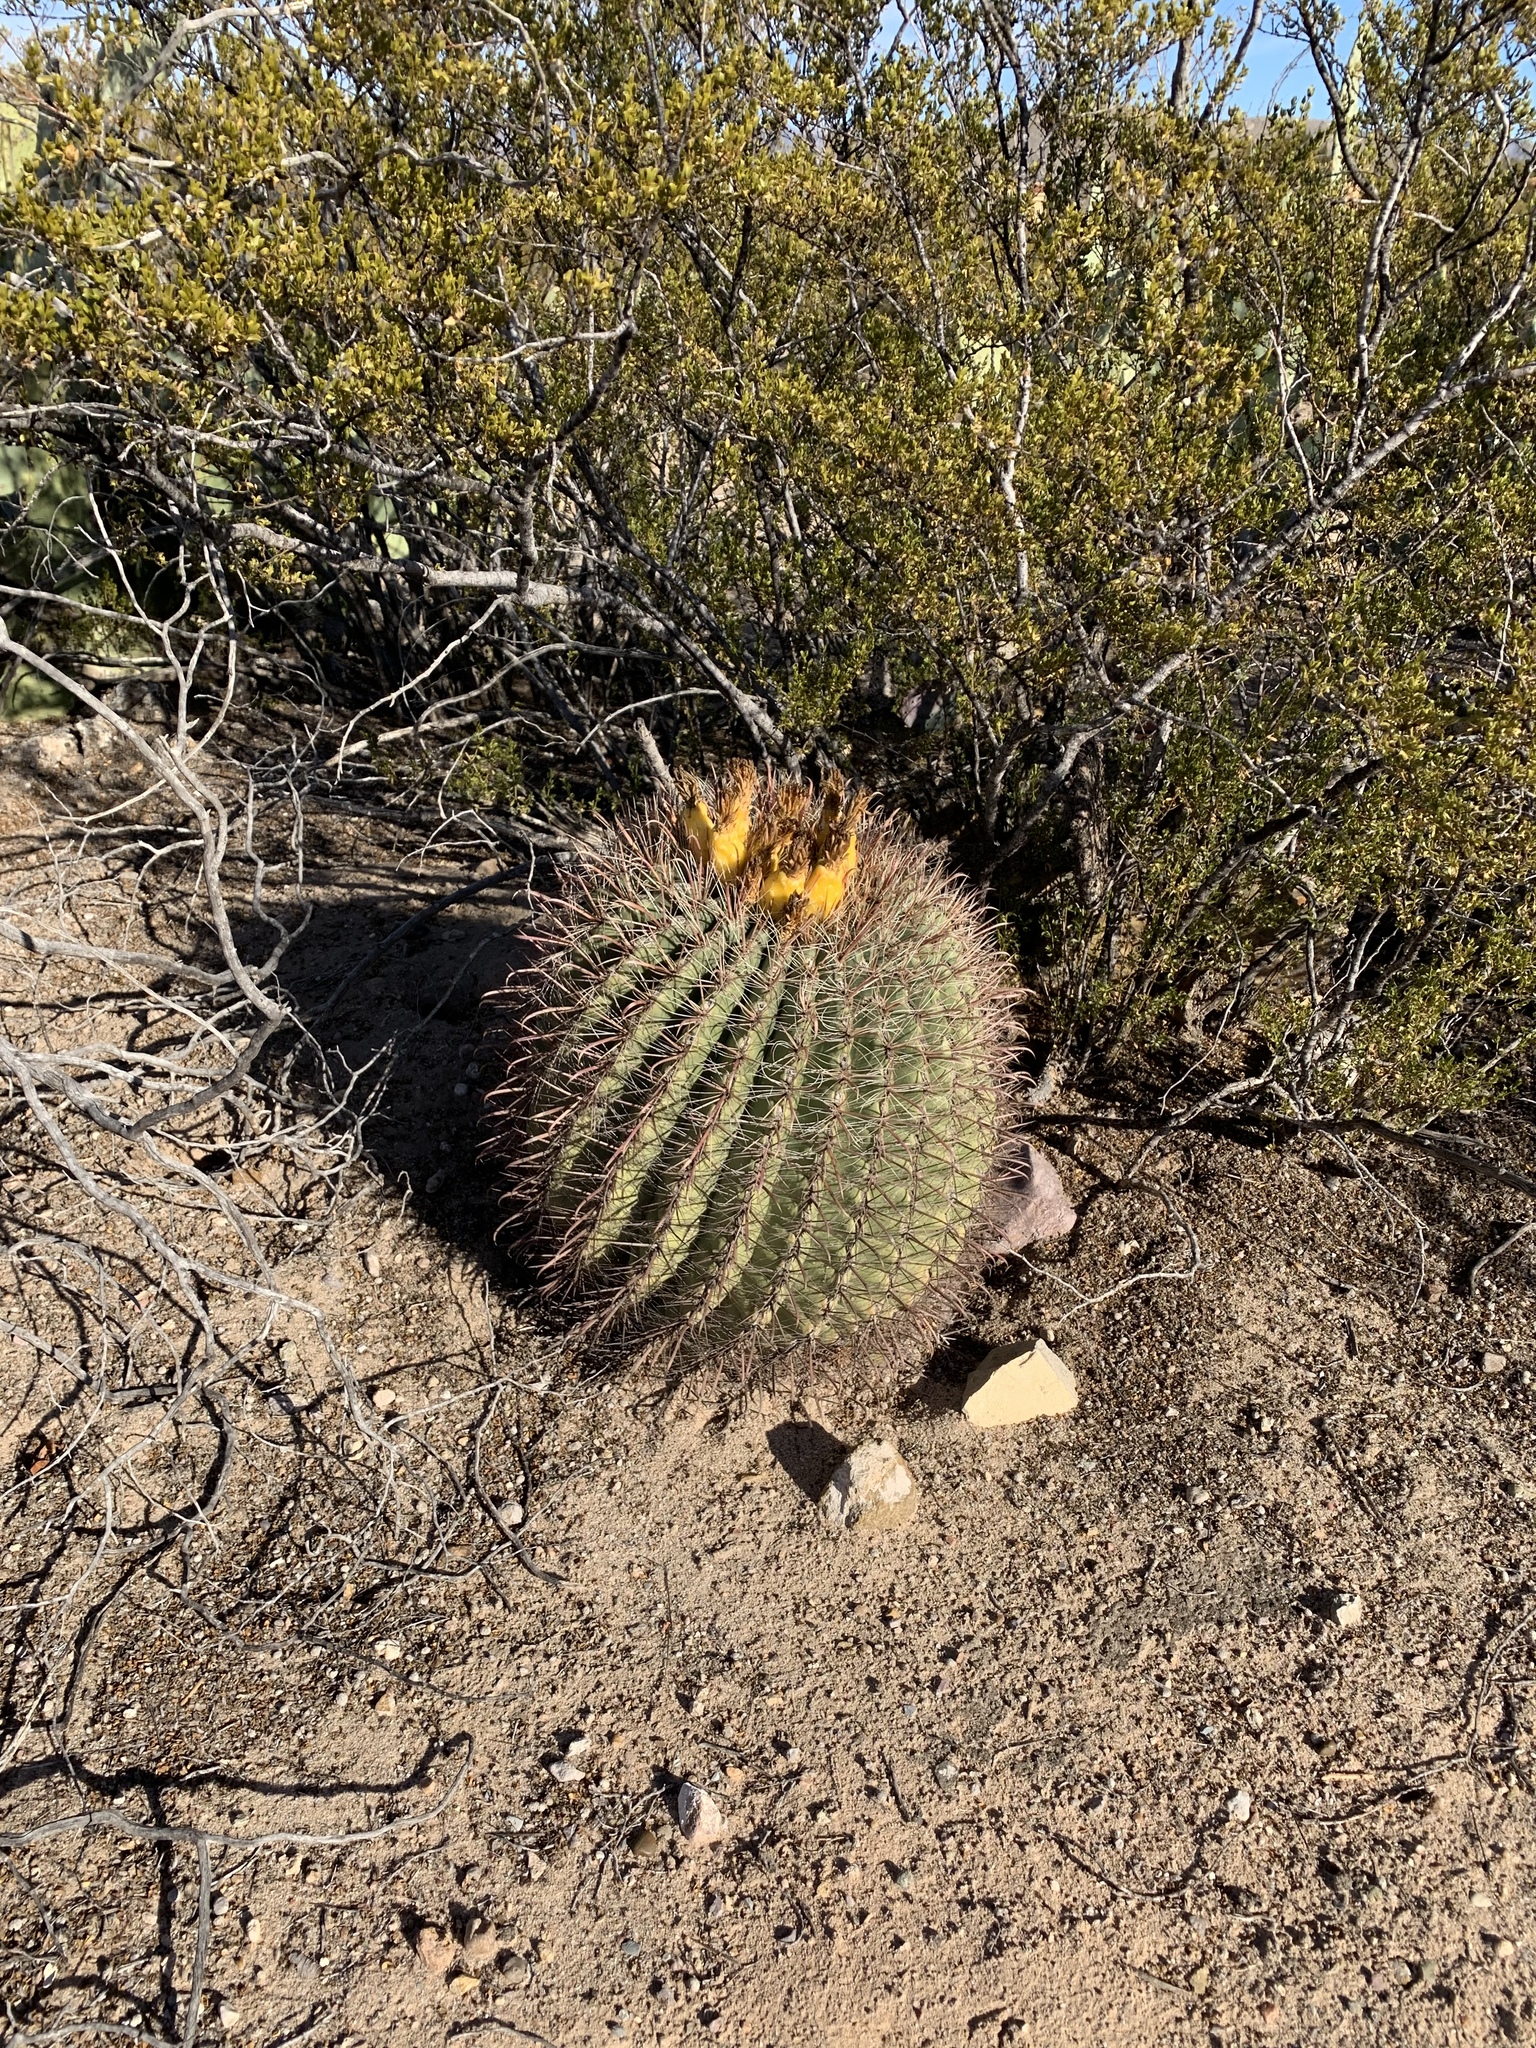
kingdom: Plantae
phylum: Tracheophyta
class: Magnoliopsida
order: Caryophyllales
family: Cactaceae
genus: Ferocactus
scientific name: Ferocactus wislizeni
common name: Candy barrel cactus
